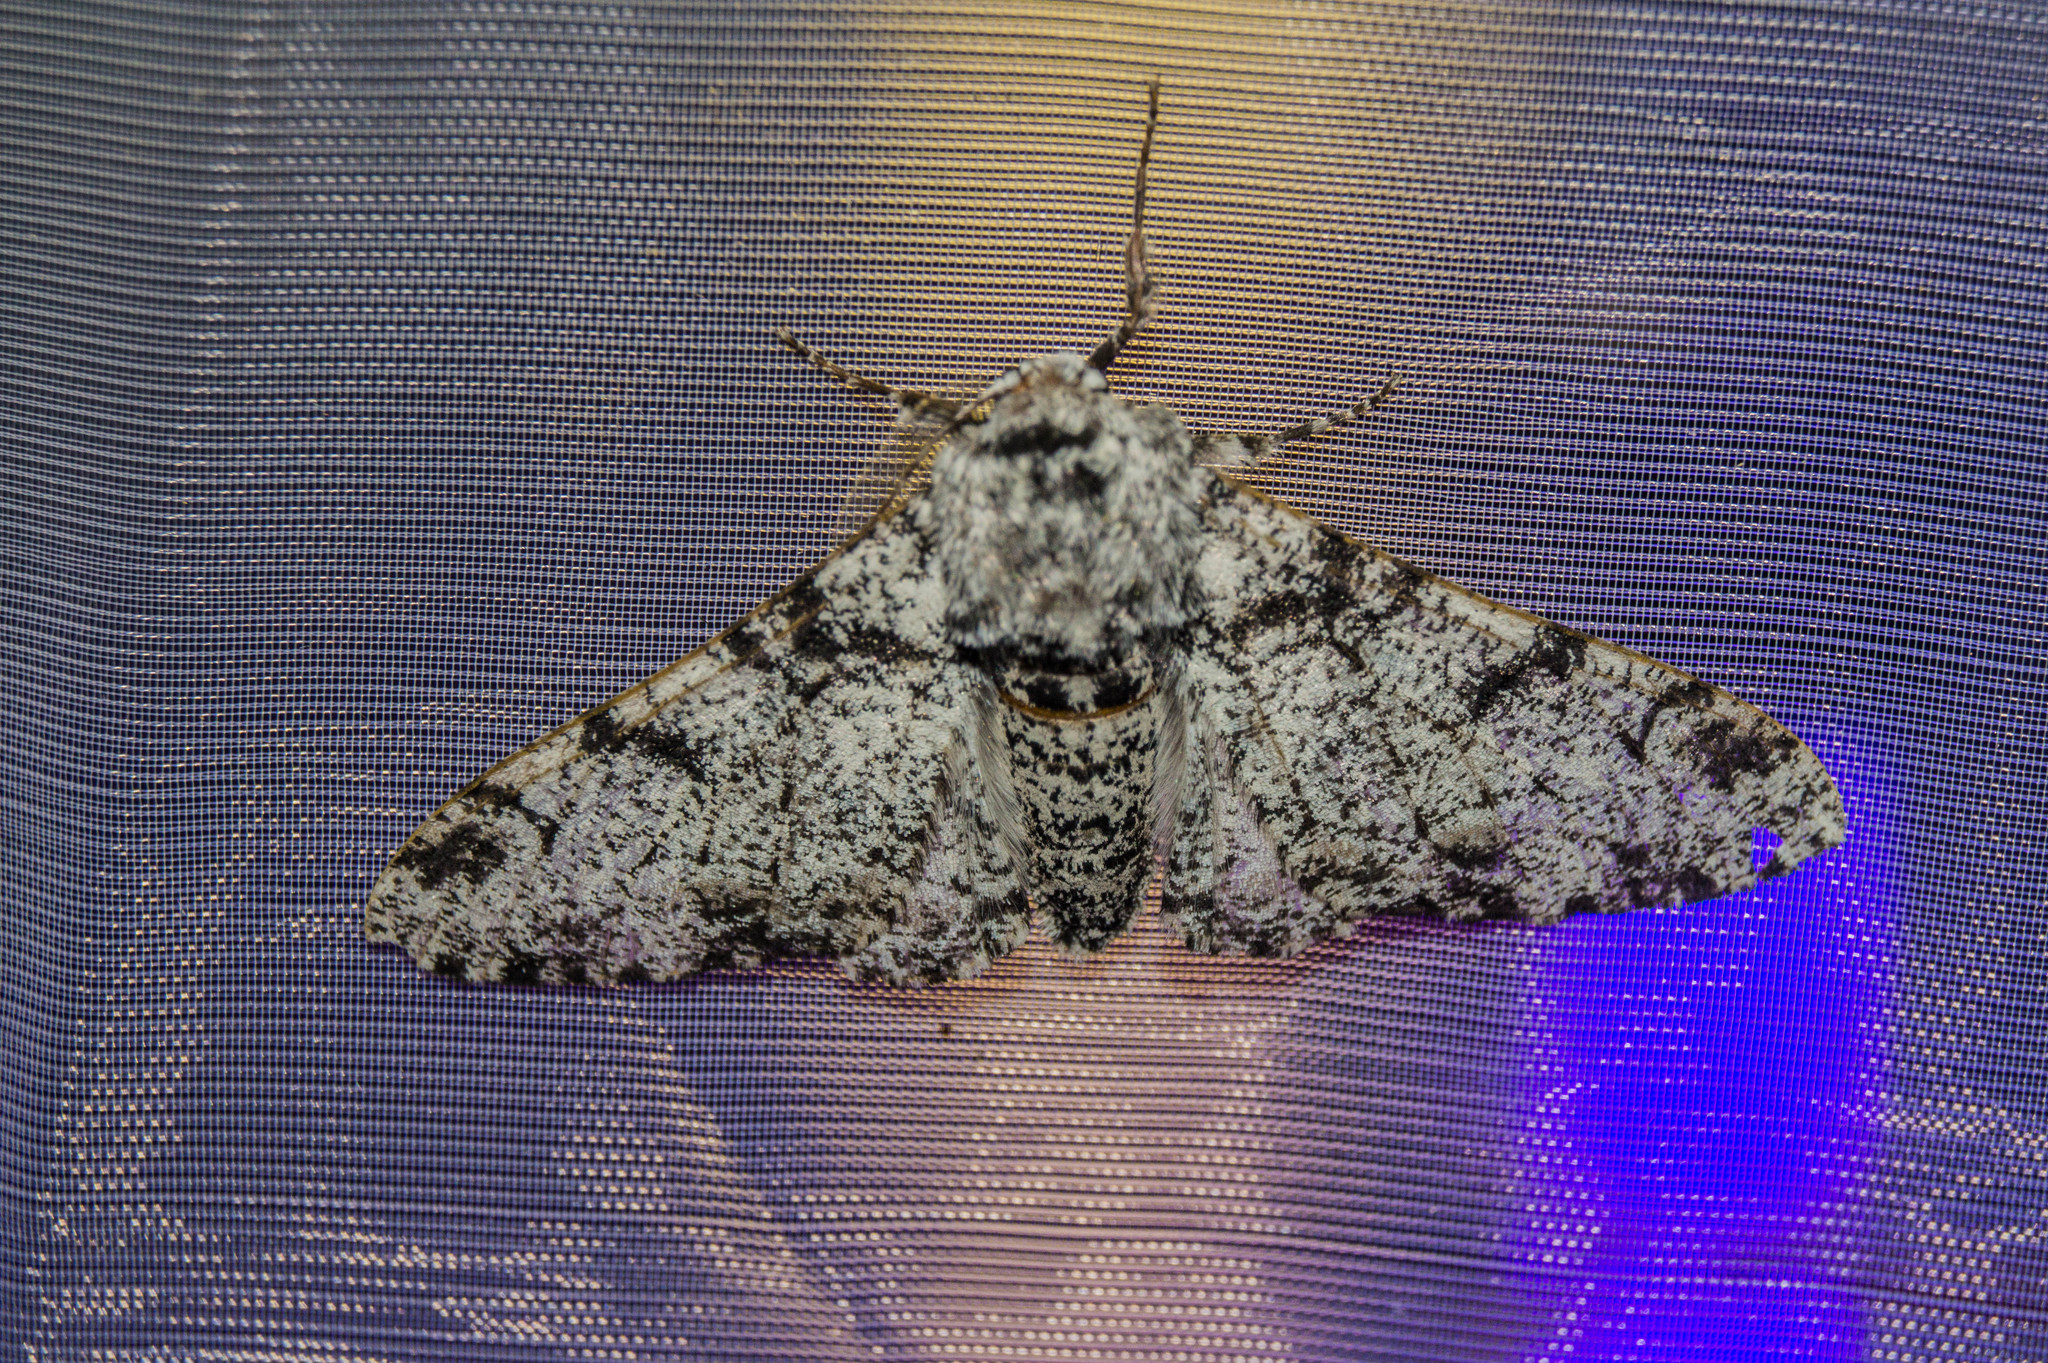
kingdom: Animalia
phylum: Arthropoda
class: Insecta
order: Lepidoptera
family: Geometridae
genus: Biston
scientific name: Biston betularia
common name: Peppered moth
